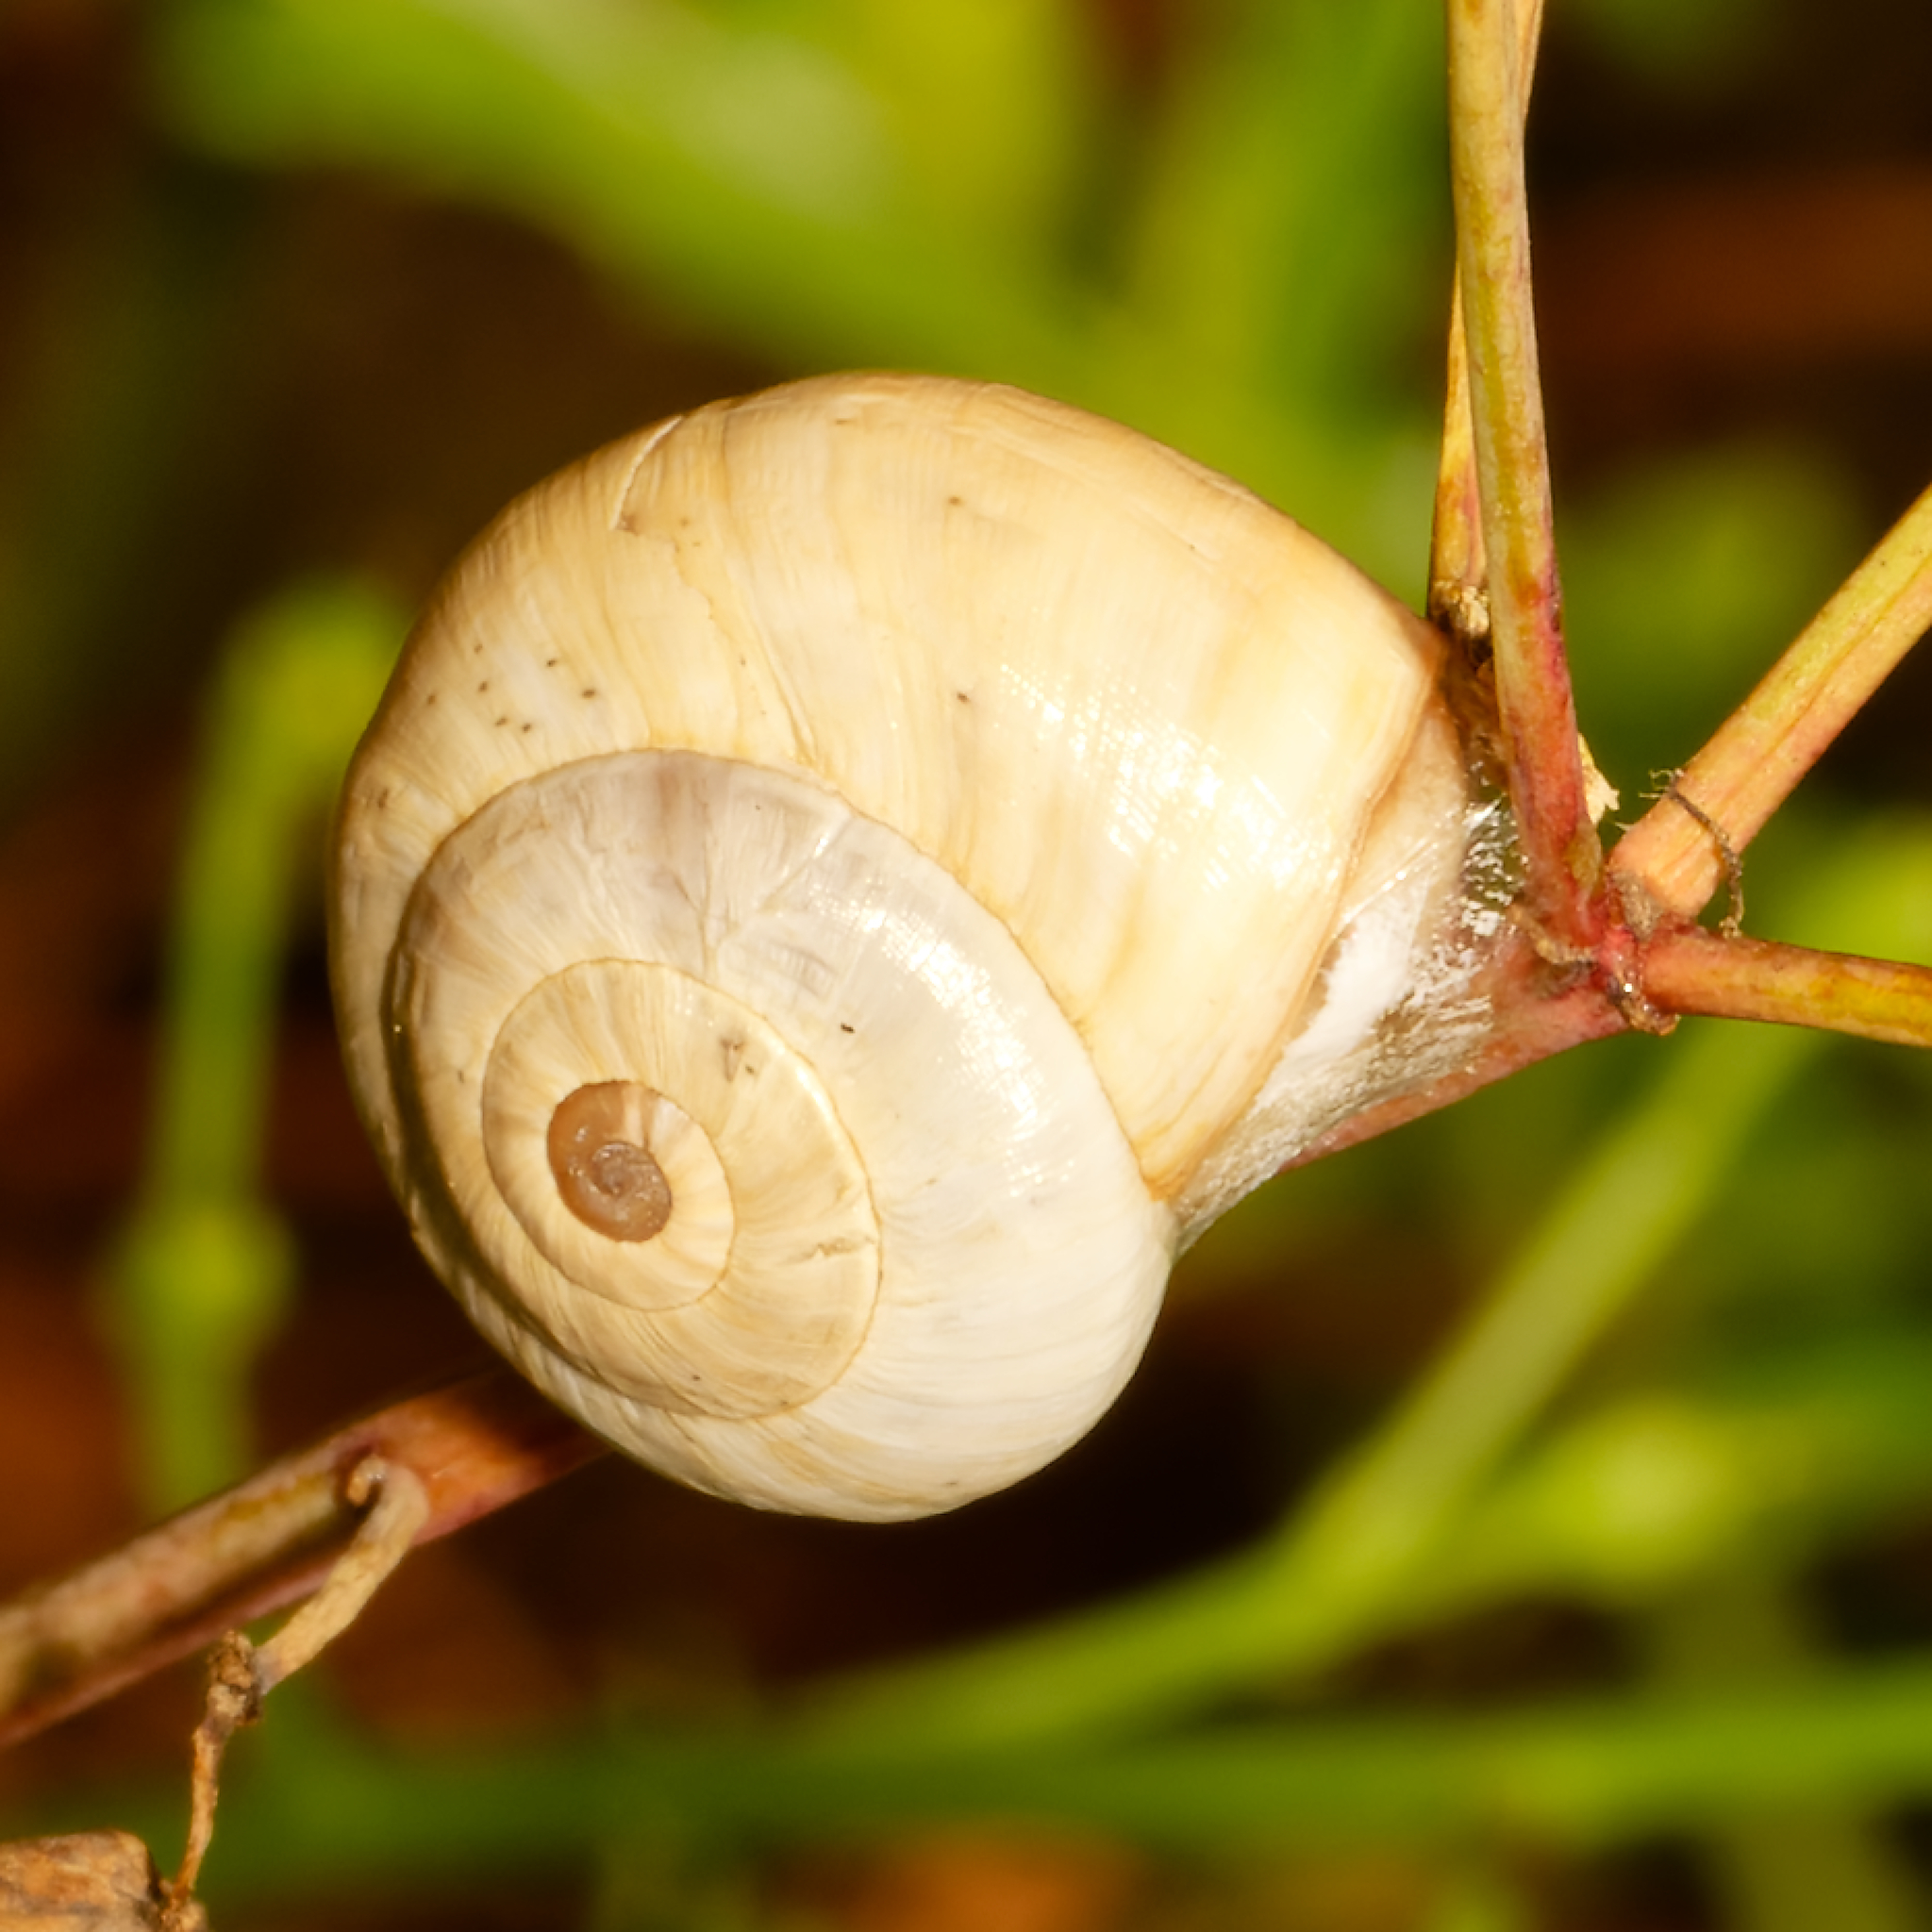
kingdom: Animalia
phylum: Mollusca
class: Gastropoda
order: Stylommatophora
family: Helicidae
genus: Theba
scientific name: Theba pisana
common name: White snail
